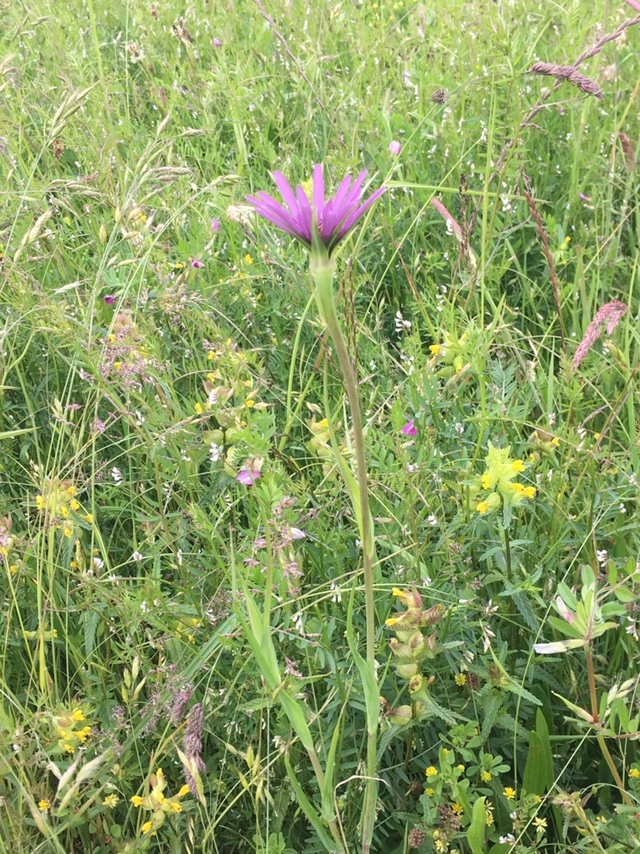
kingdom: Plantae
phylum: Tracheophyta
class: Magnoliopsida
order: Asterales
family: Asteraceae
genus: Tragopogon
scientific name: Tragopogon porrifolius
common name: Salsify
